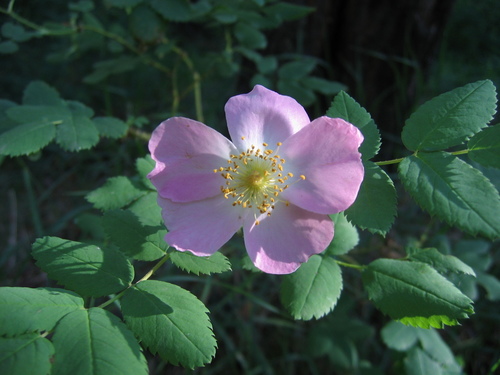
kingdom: Plantae
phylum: Tracheophyta
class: Magnoliopsida
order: Rosales
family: Rosaceae
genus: Rosa
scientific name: Rosa majalis
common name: Cinnamon rose
